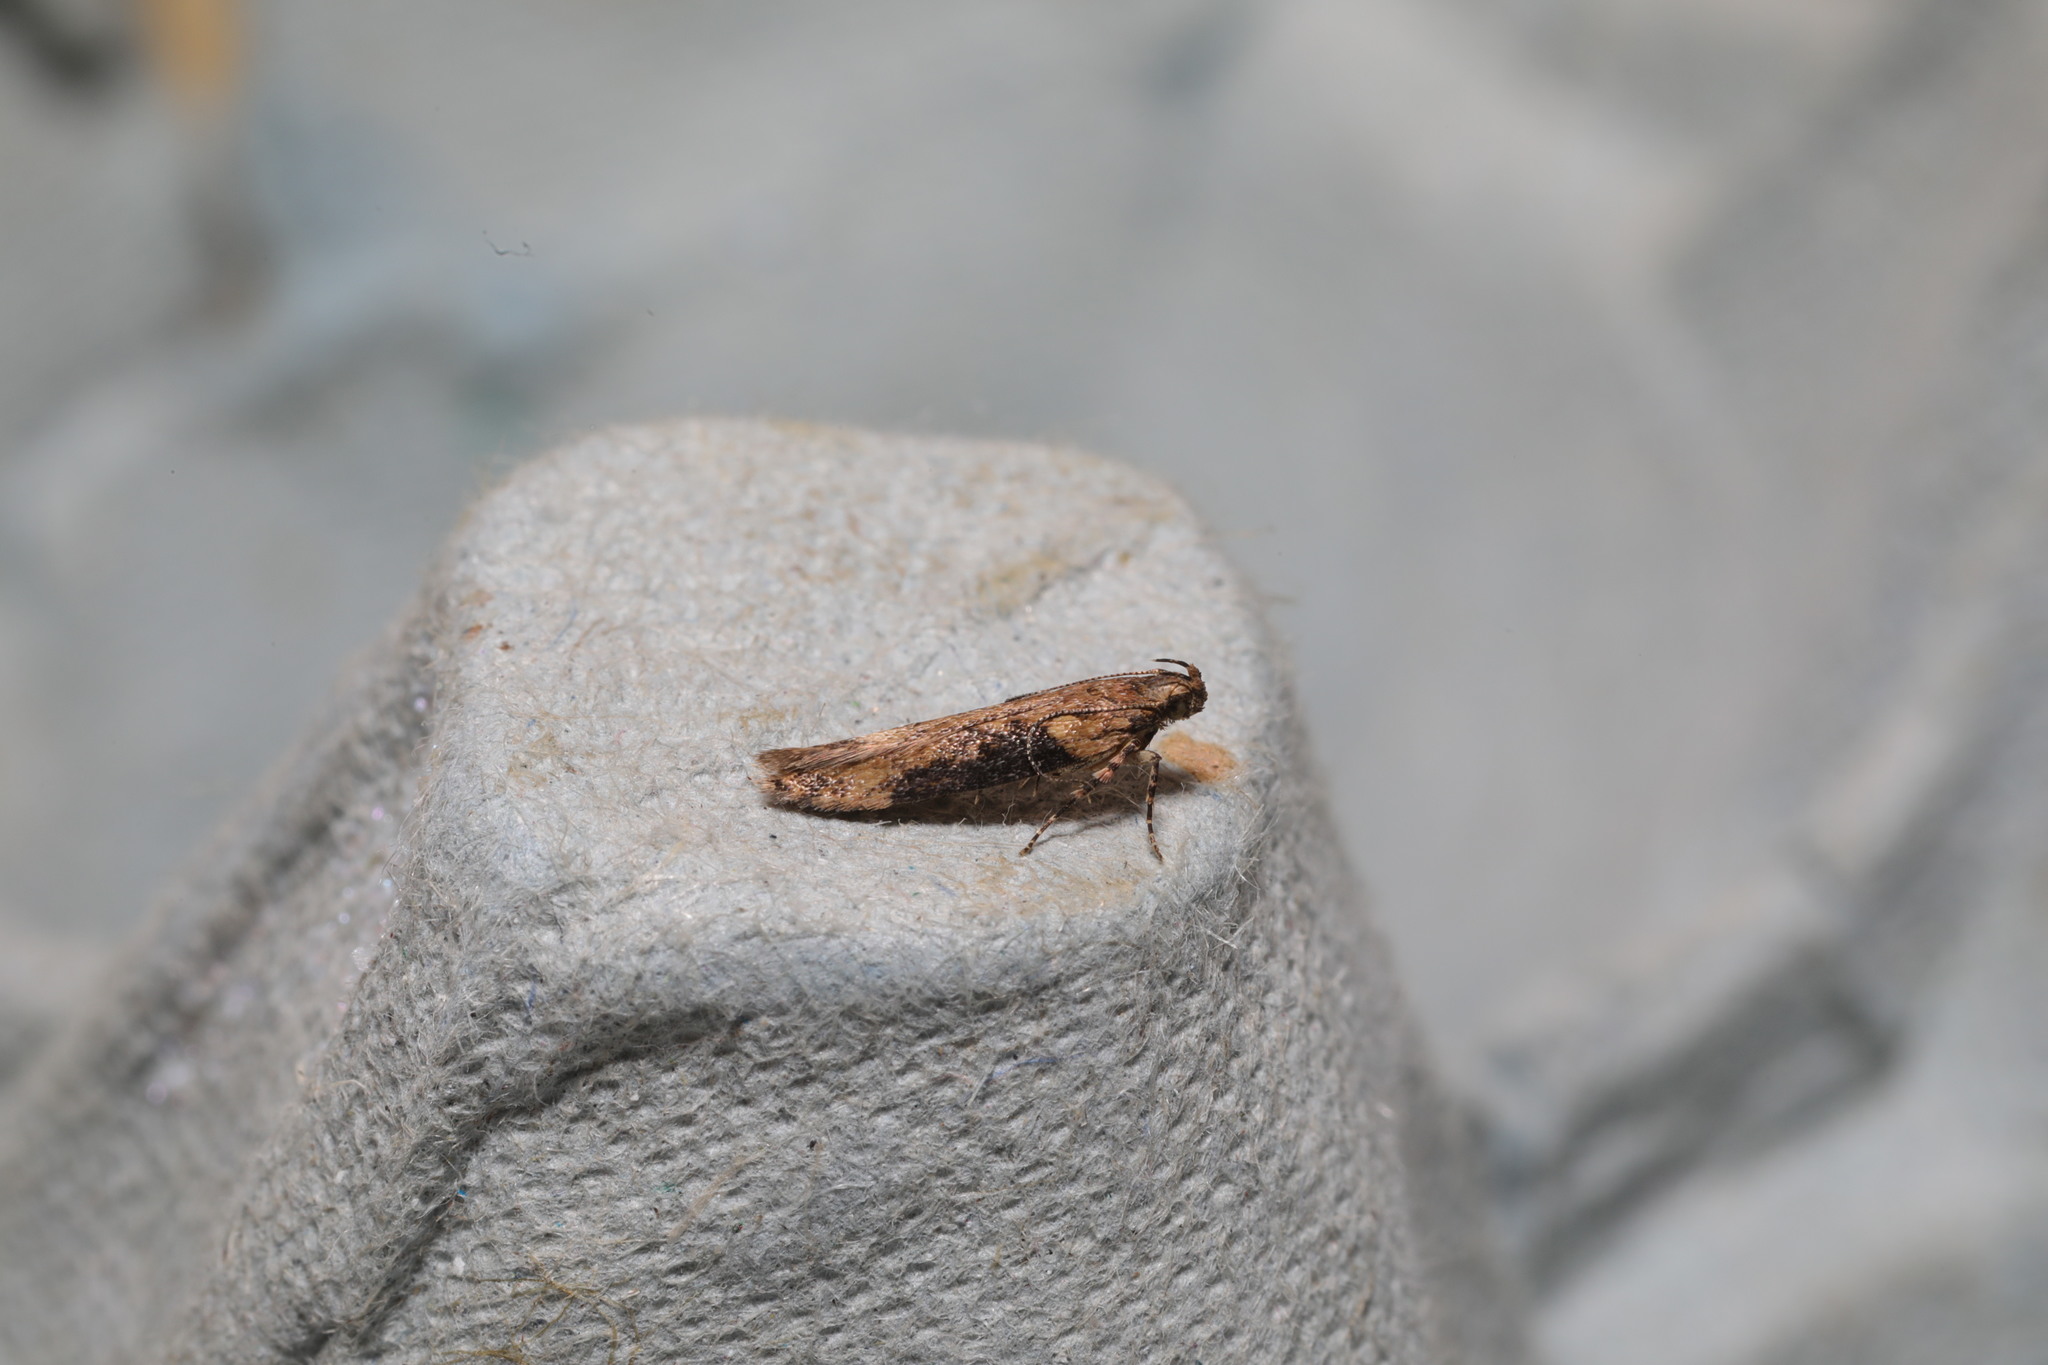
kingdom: Animalia
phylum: Arthropoda
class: Insecta
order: Lepidoptera
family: Gelechiidae
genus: Scrobipalpa
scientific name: Scrobipalpa costella
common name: Winter groundling
